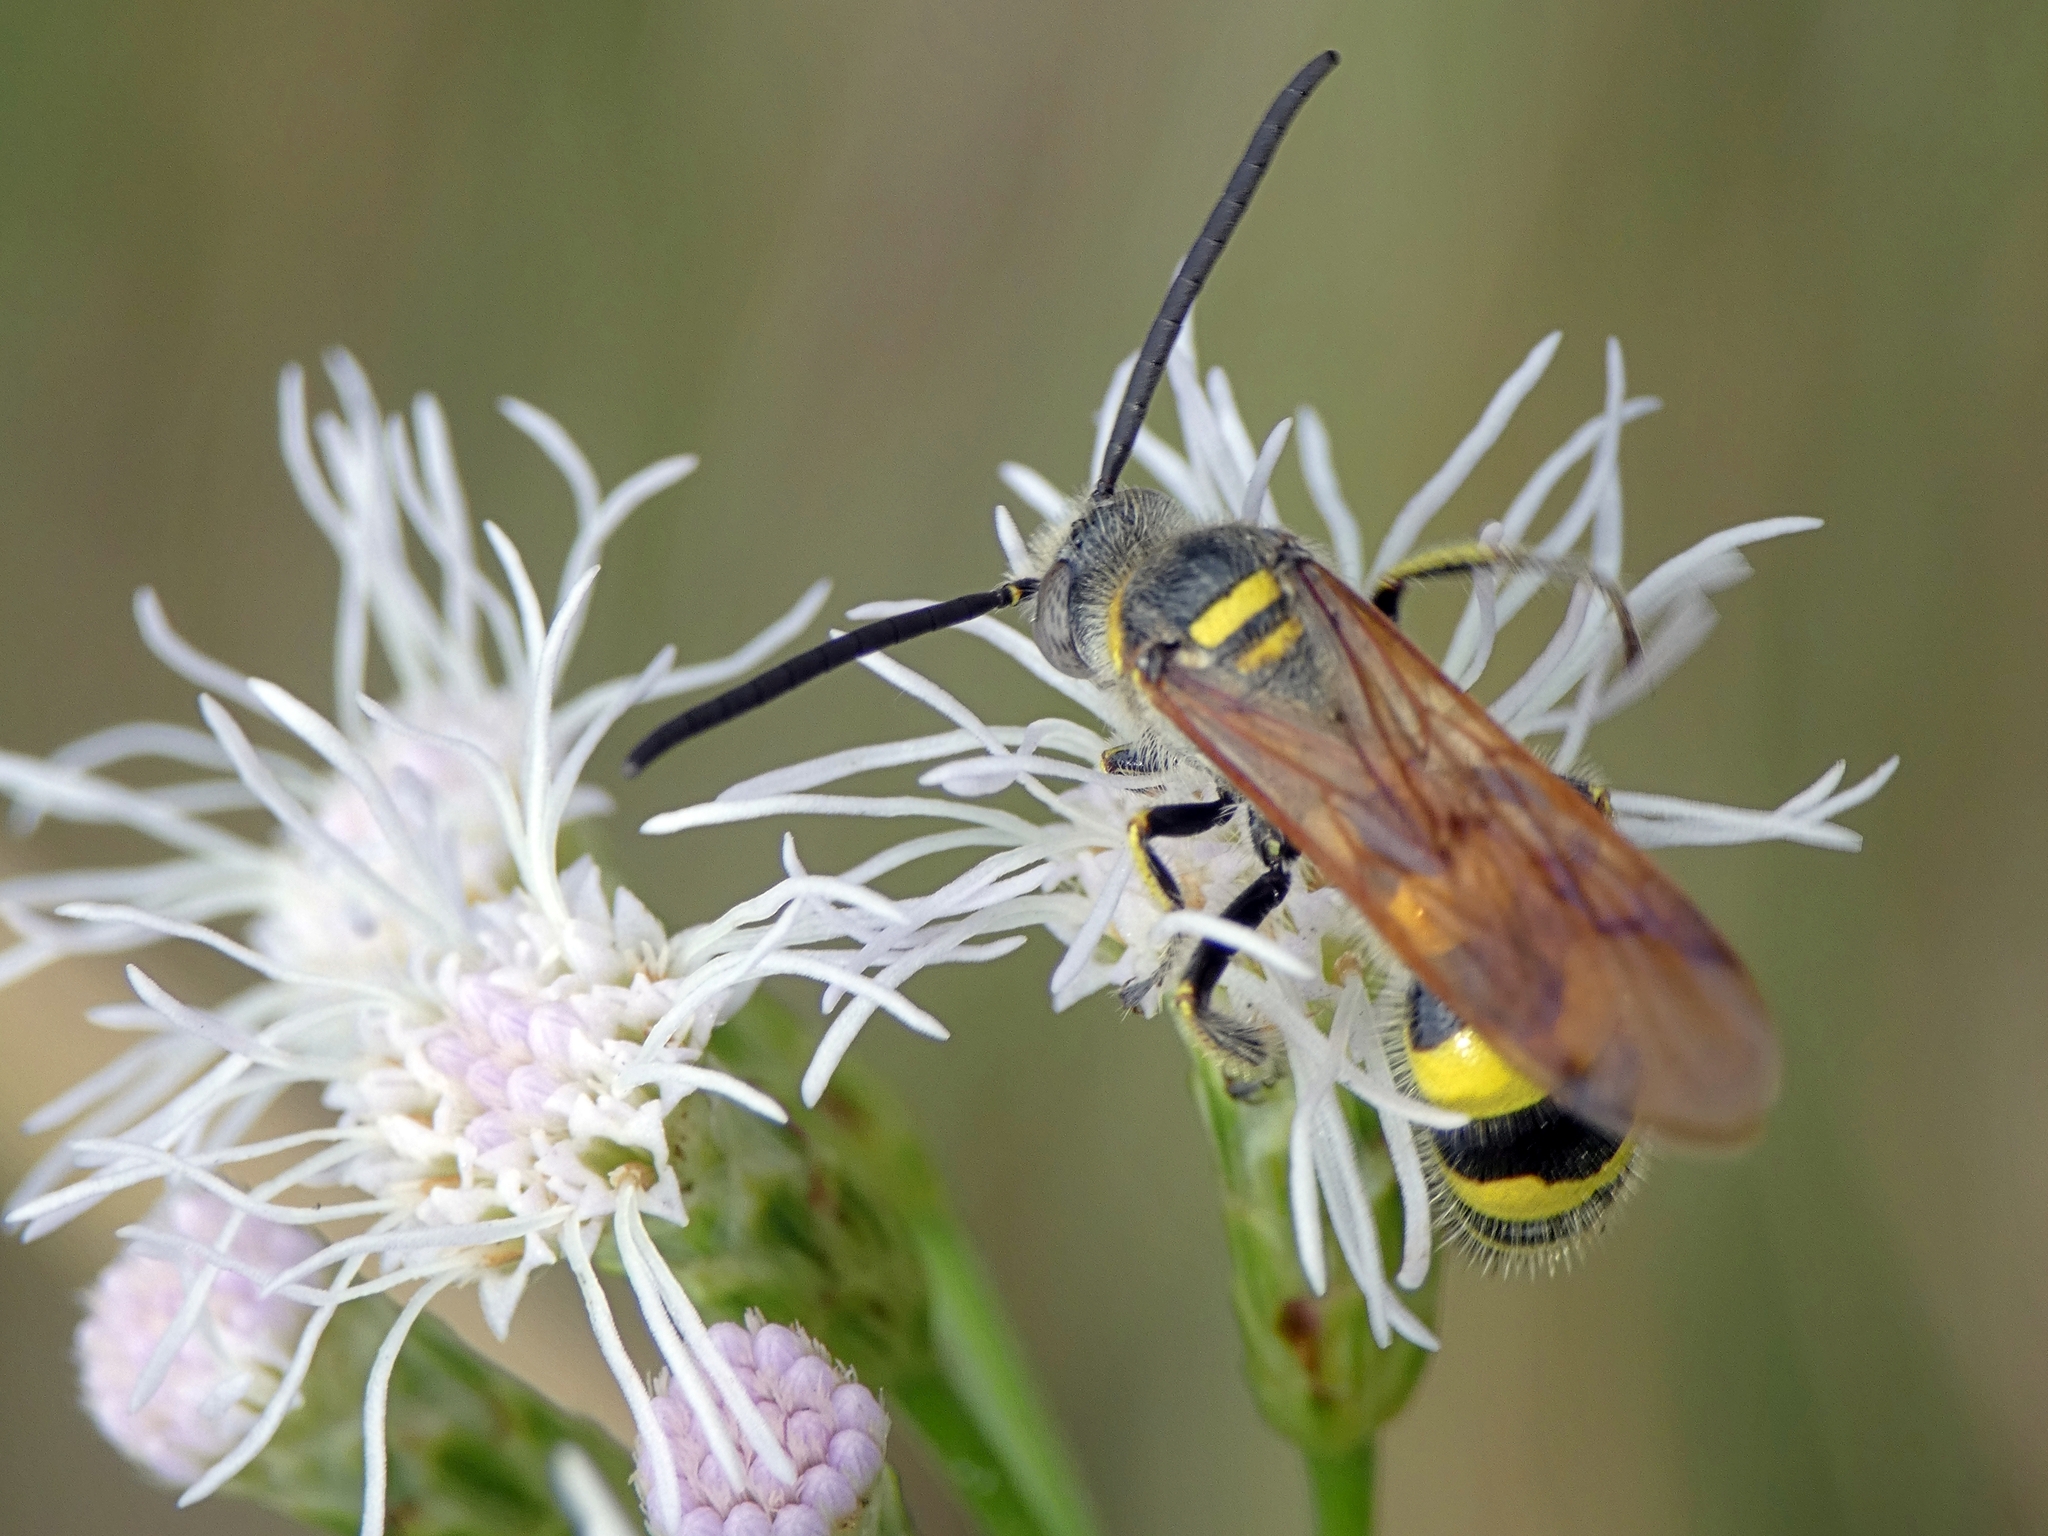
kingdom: Animalia
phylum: Arthropoda
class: Insecta
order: Hymenoptera
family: Scoliidae
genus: Dielis
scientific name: Dielis
